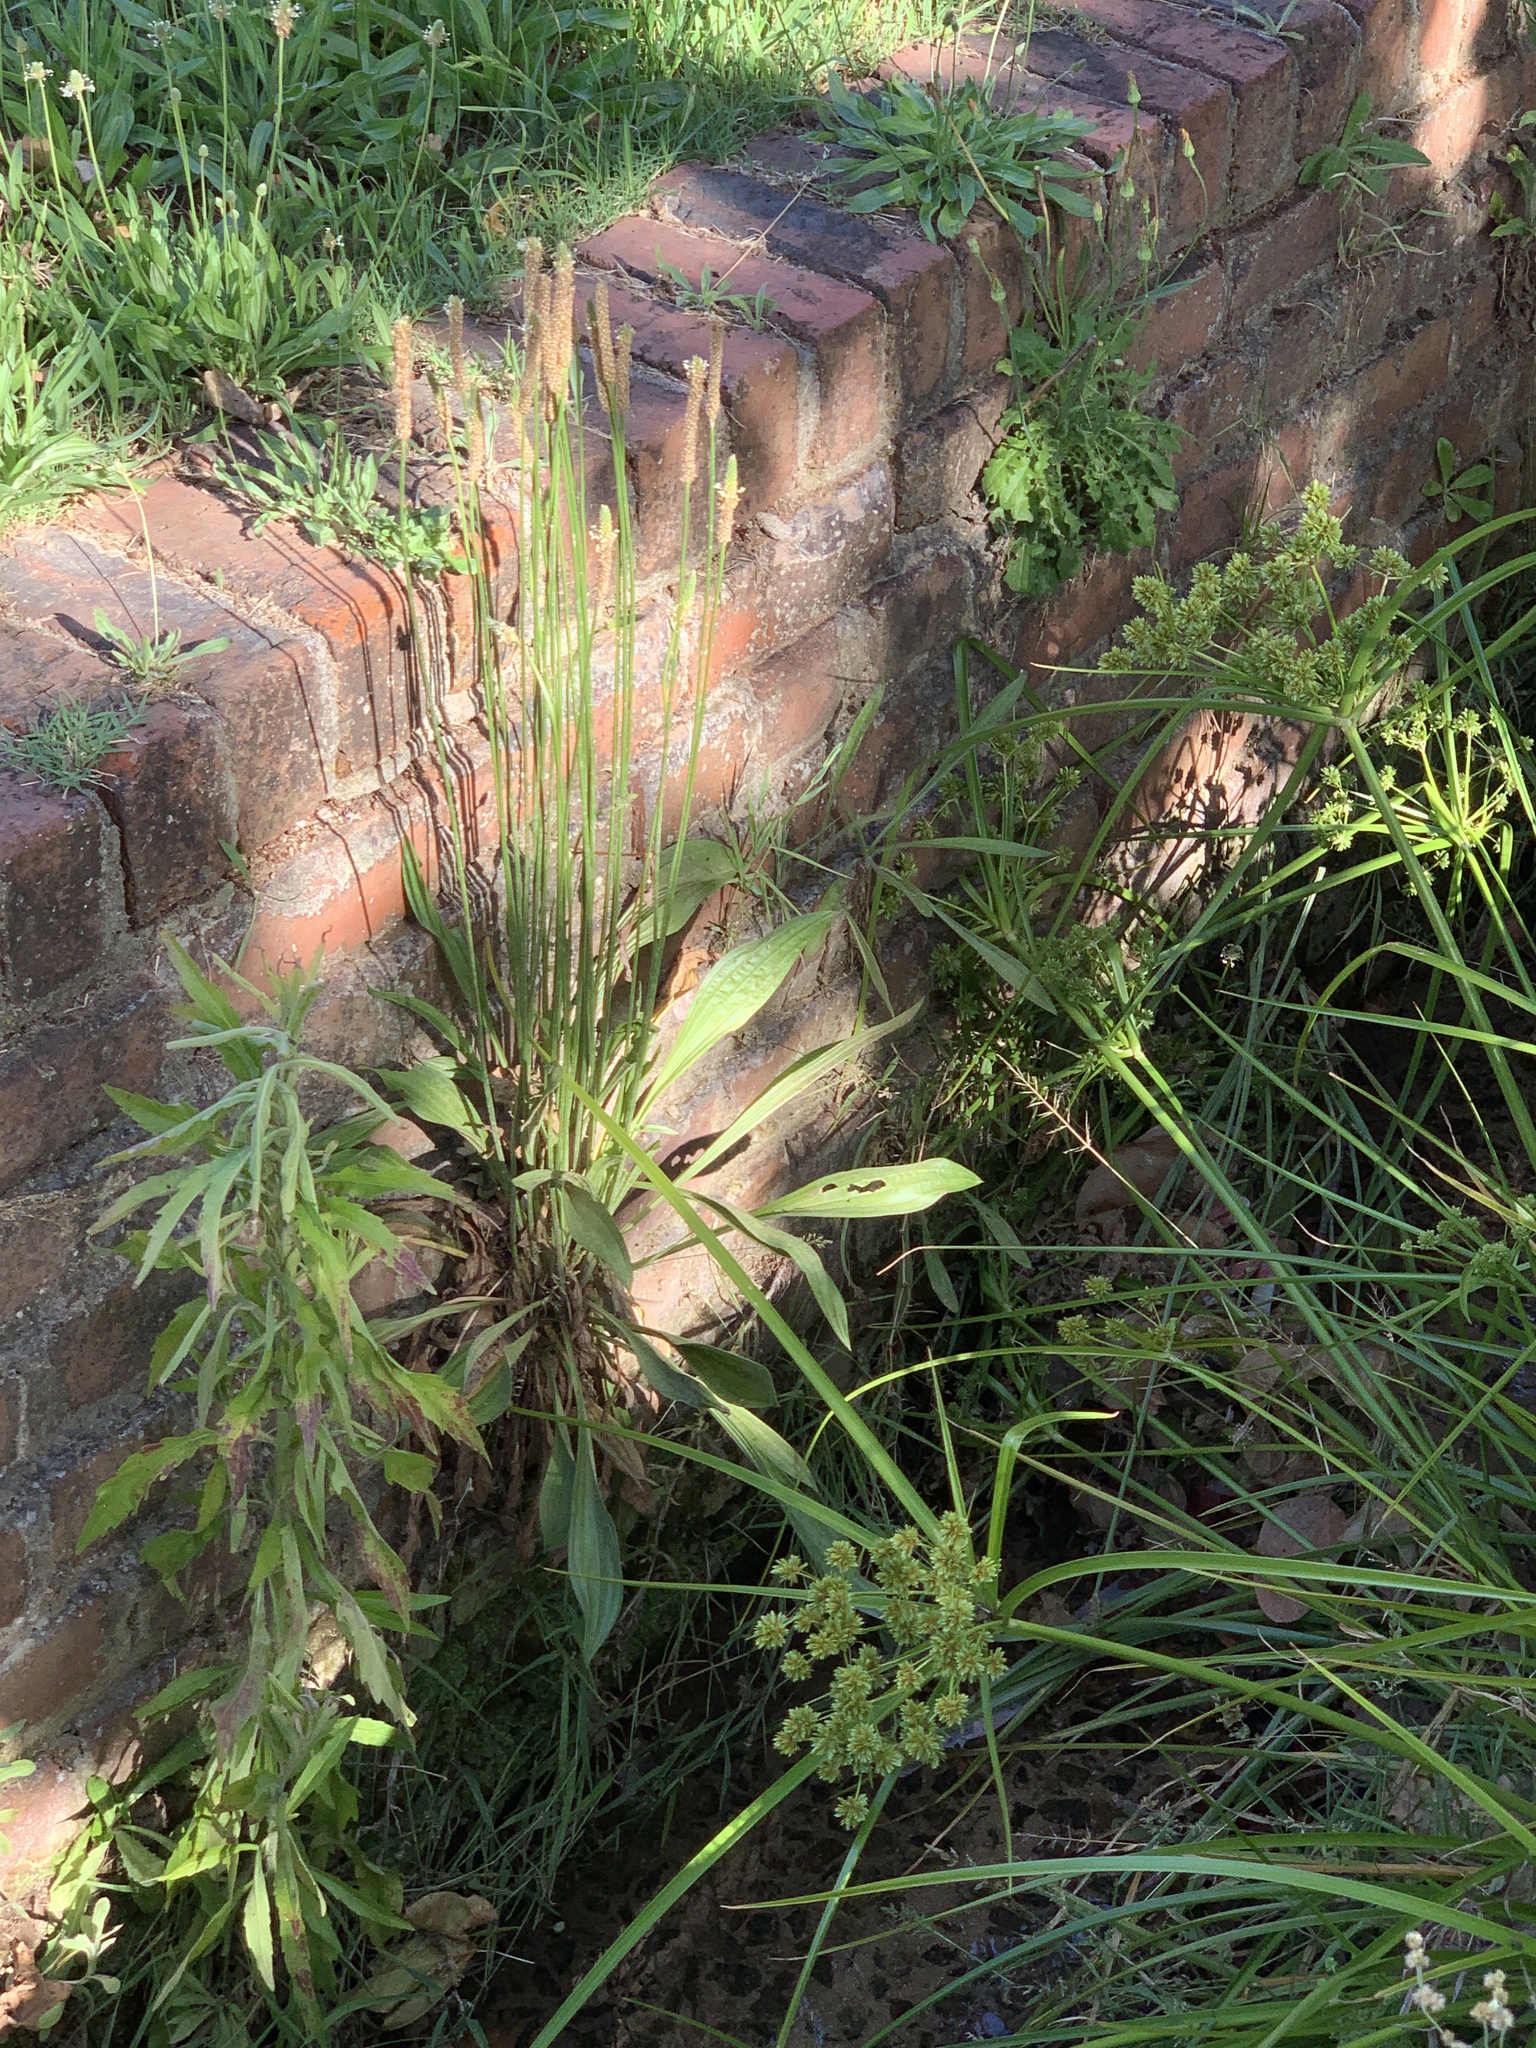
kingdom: Plantae
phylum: Tracheophyta
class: Liliopsida
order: Poales
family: Cyperaceae
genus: Cyperus
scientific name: Cyperus eragrostis
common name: Tall flatsedge
